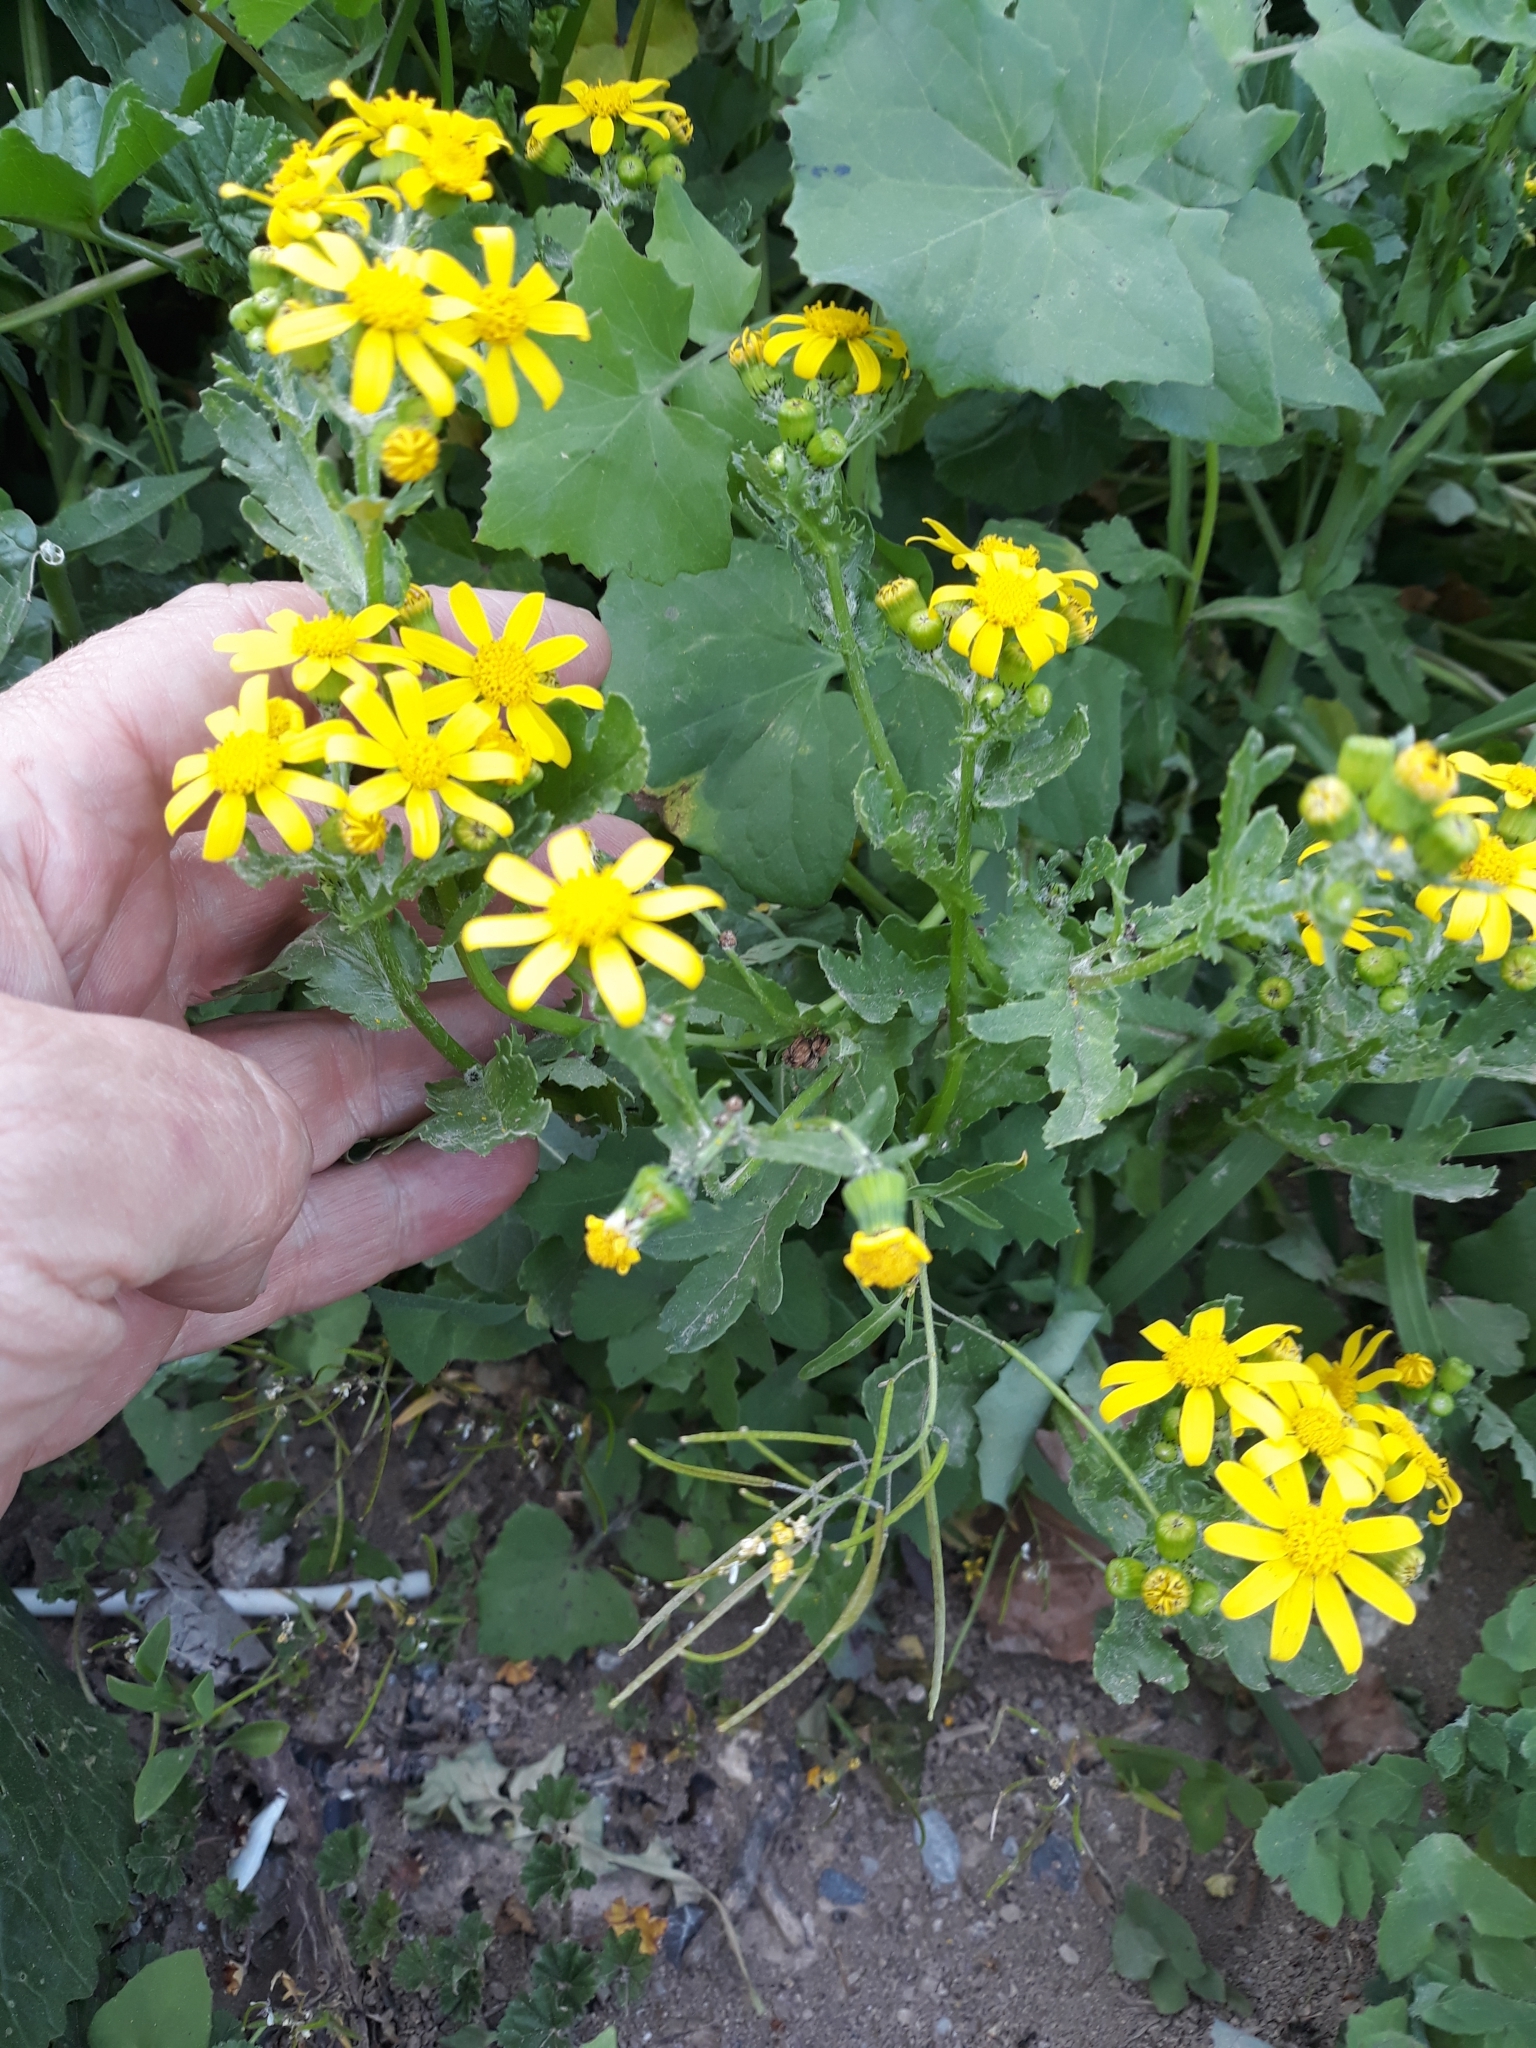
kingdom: Plantae
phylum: Tracheophyta
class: Magnoliopsida
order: Asterales
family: Asteraceae
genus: Senecio
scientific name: Senecio leucanthemifolius
